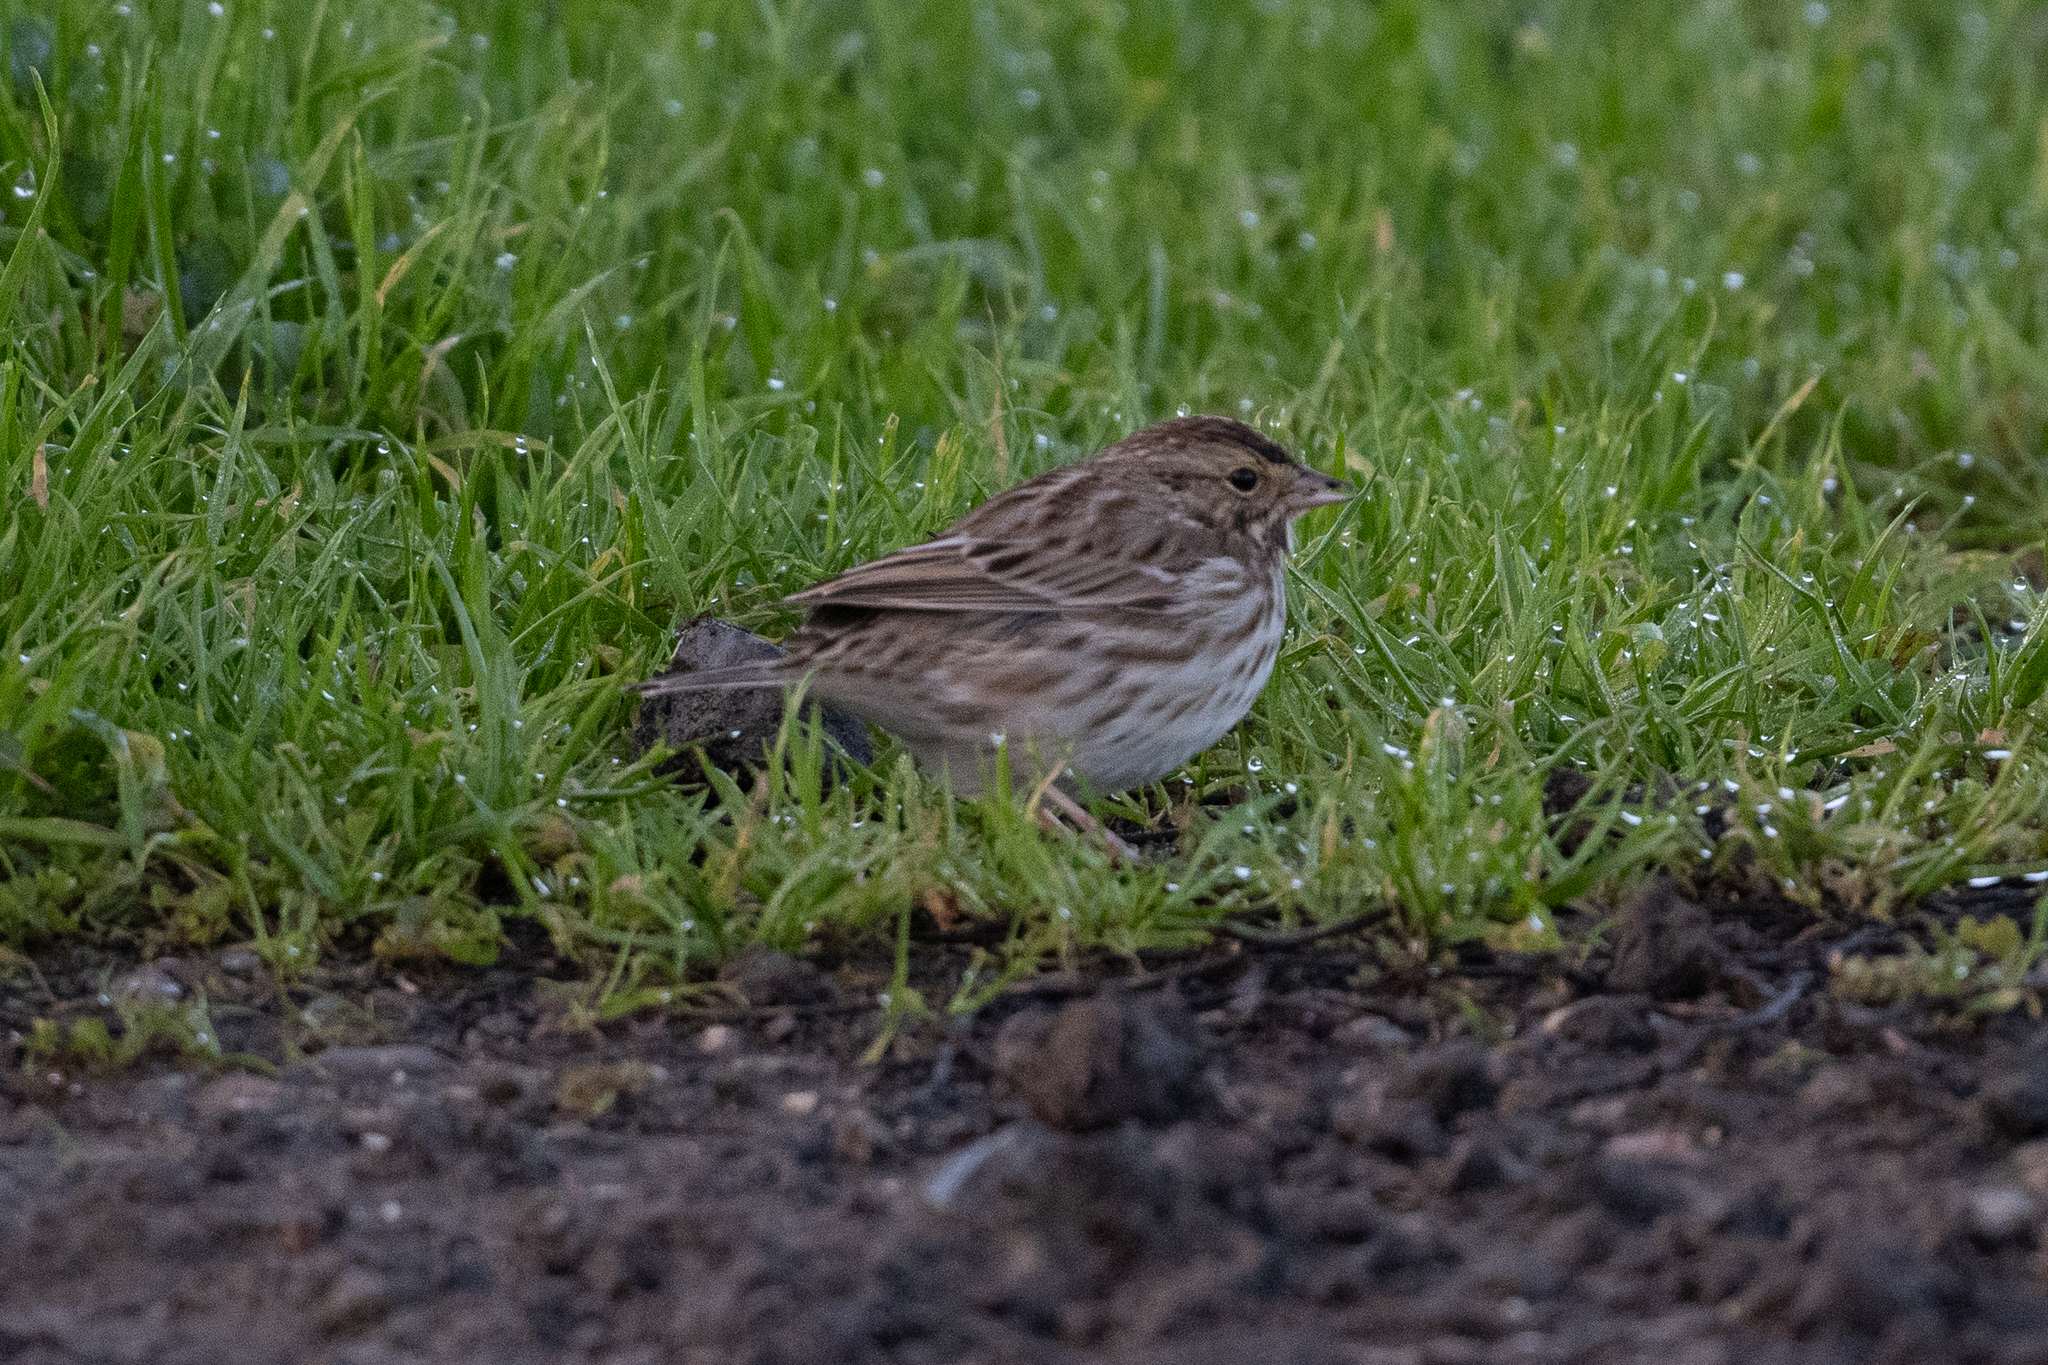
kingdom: Animalia
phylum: Chordata
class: Aves
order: Passeriformes
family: Passerellidae
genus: Passerculus
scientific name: Passerculus sandwichensis
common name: Savannah sparrow
